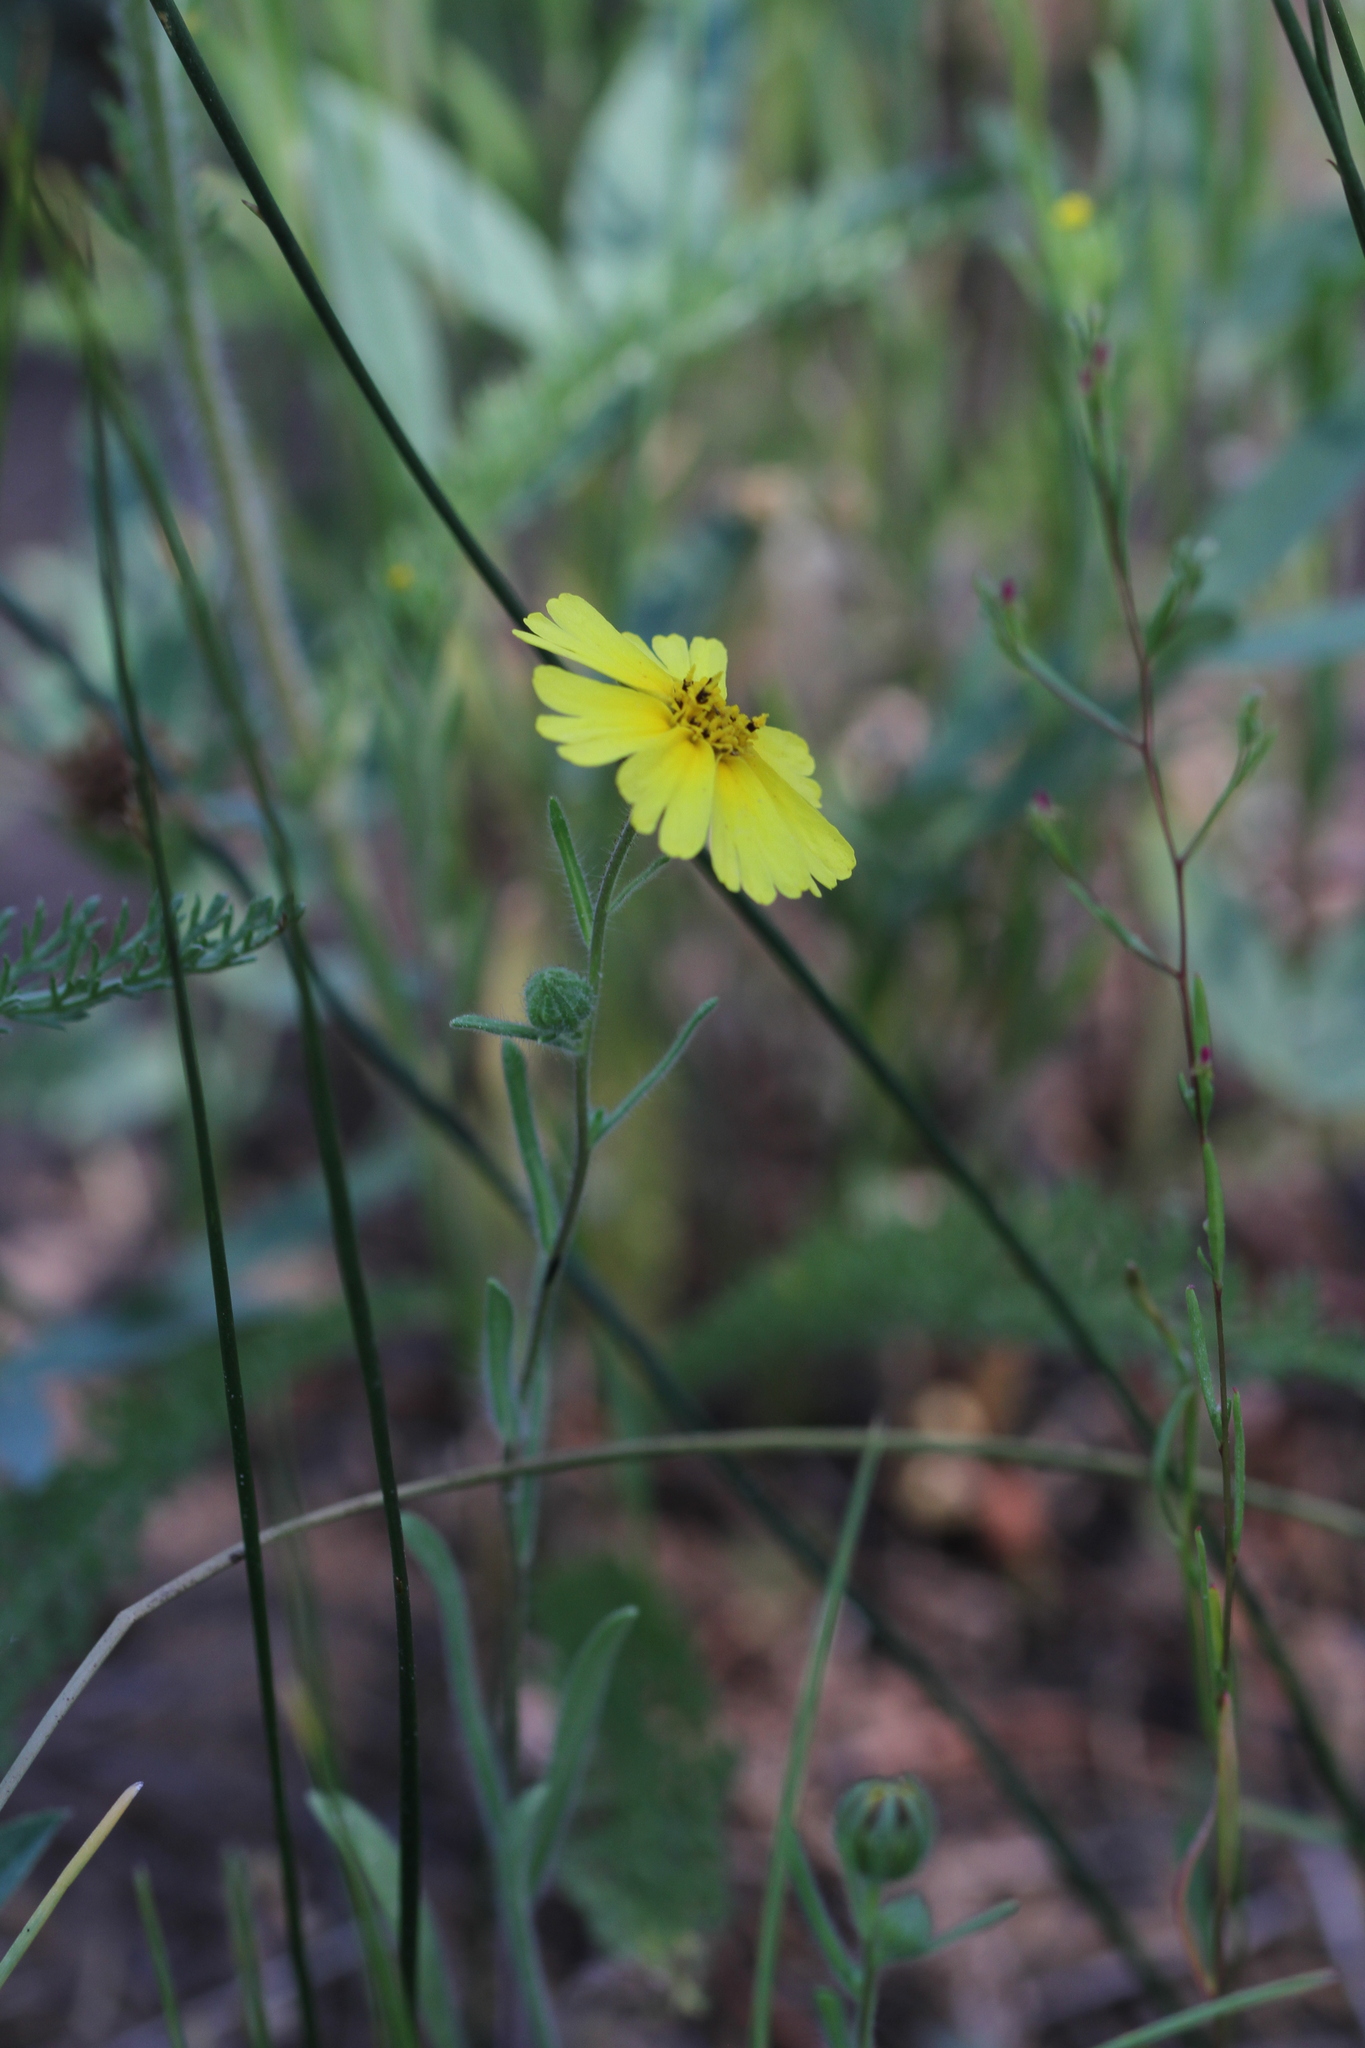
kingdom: Plantae
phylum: Tracheophyta
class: Magnoliopsida
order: Asterales
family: Asteraceae
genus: Madia
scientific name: Madia elegans
